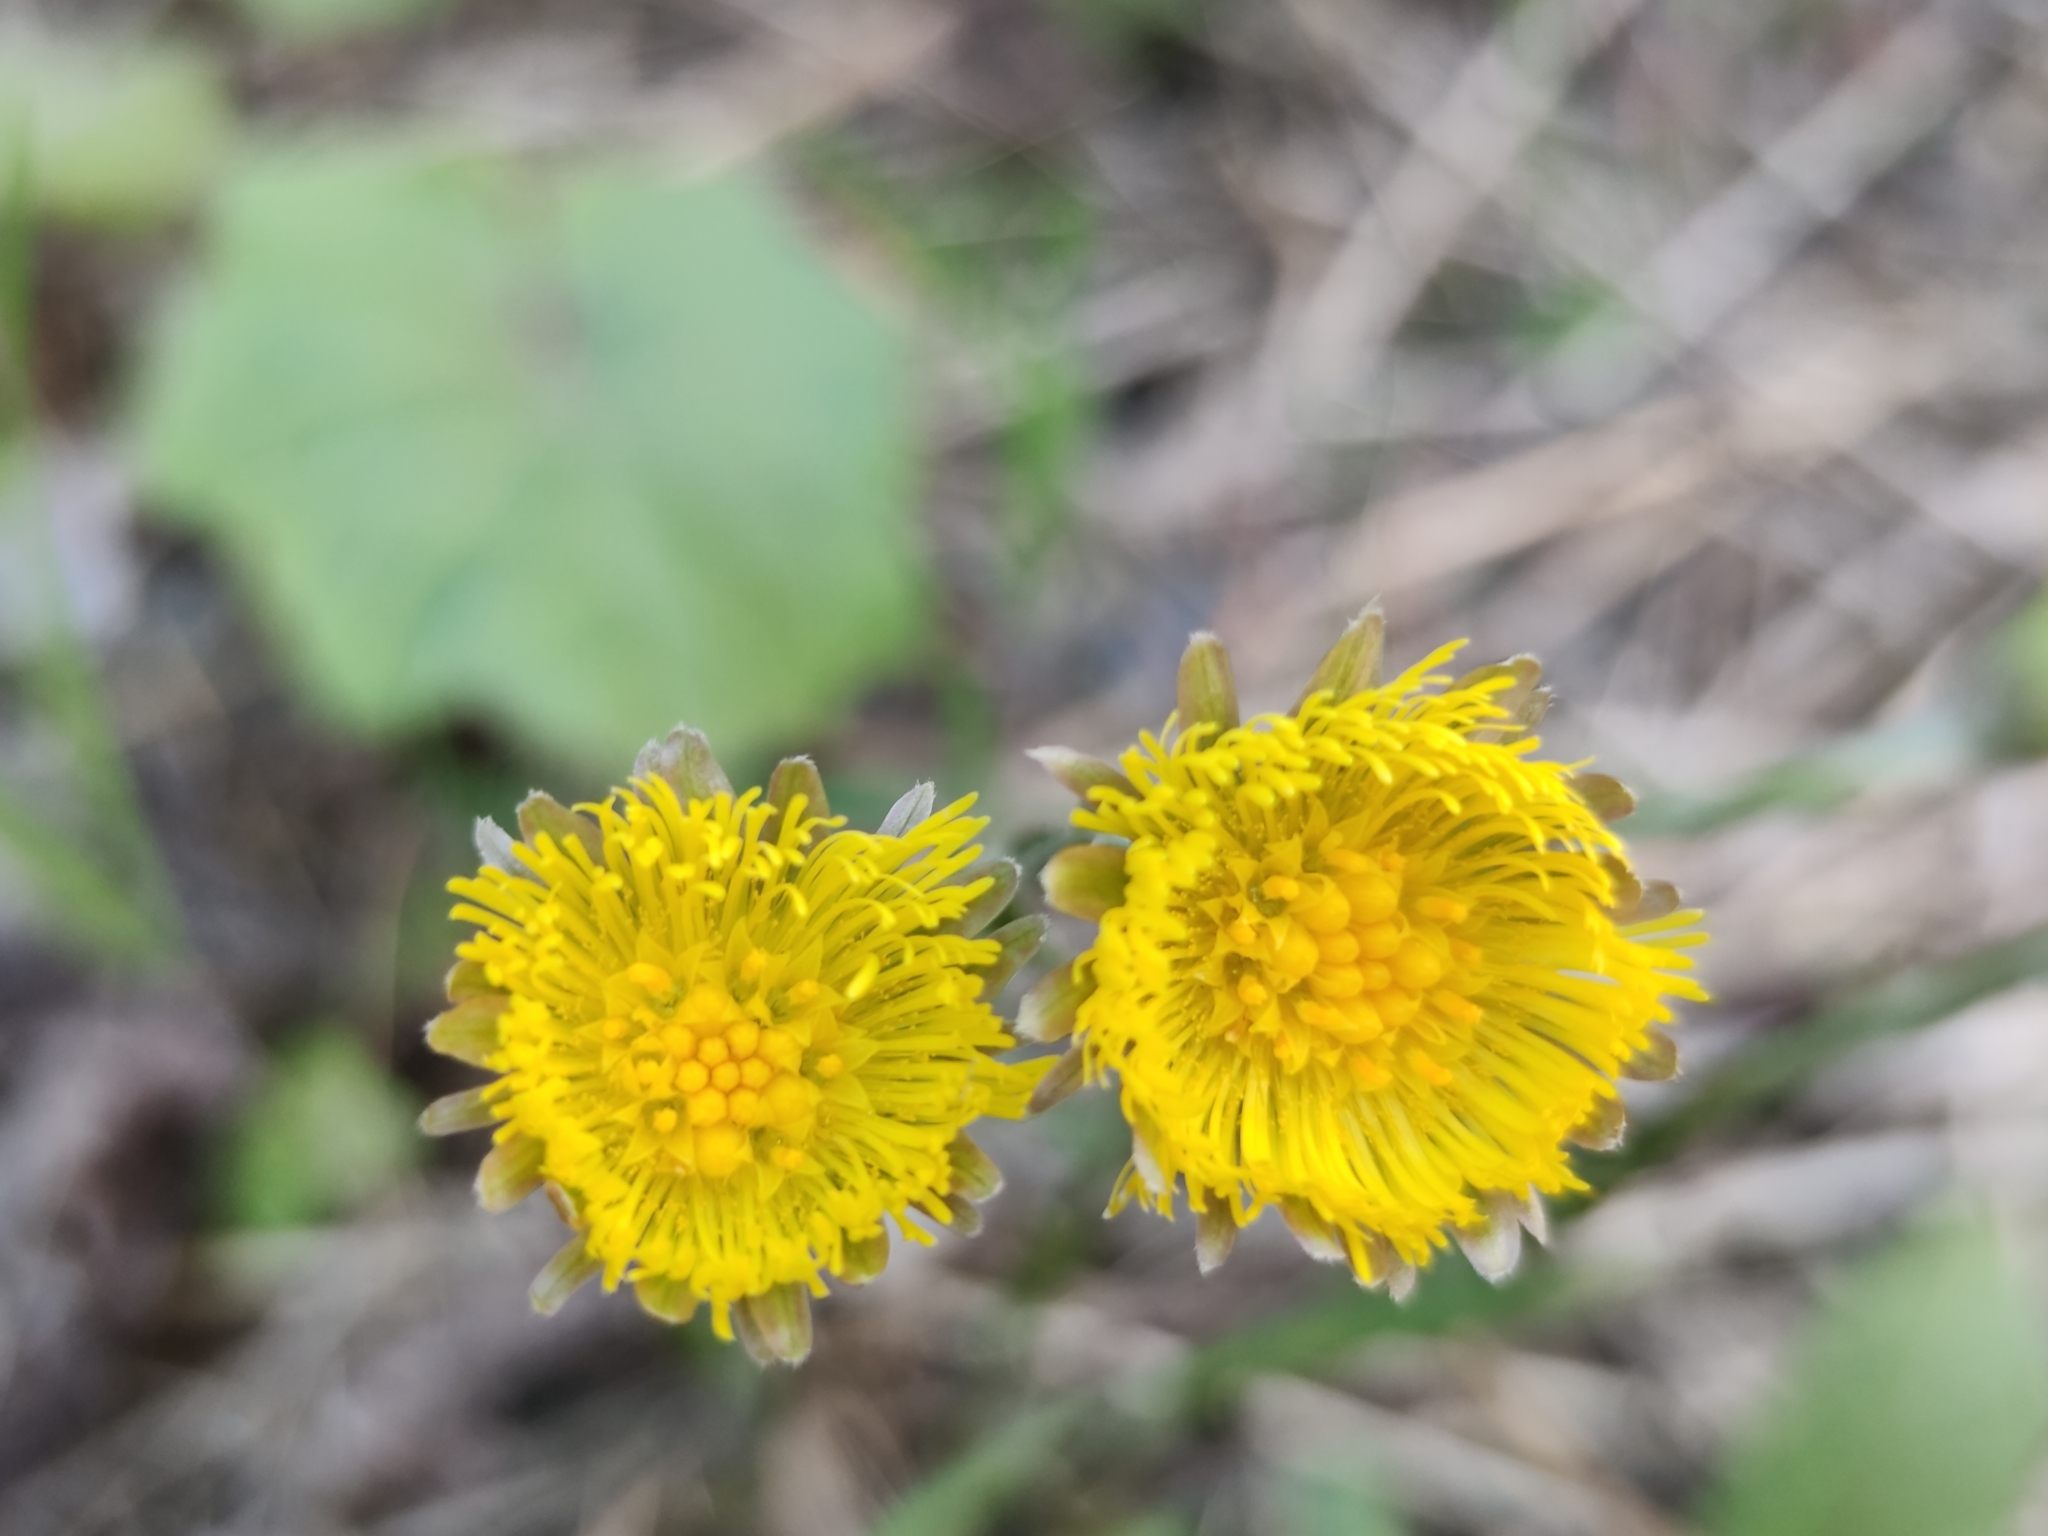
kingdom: Plantae
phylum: Tracheophyta
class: Magnoliopsida
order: Asterales
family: Asteraceae
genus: Tussilago
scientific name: Tussilago farfara
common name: Coltsfoot
